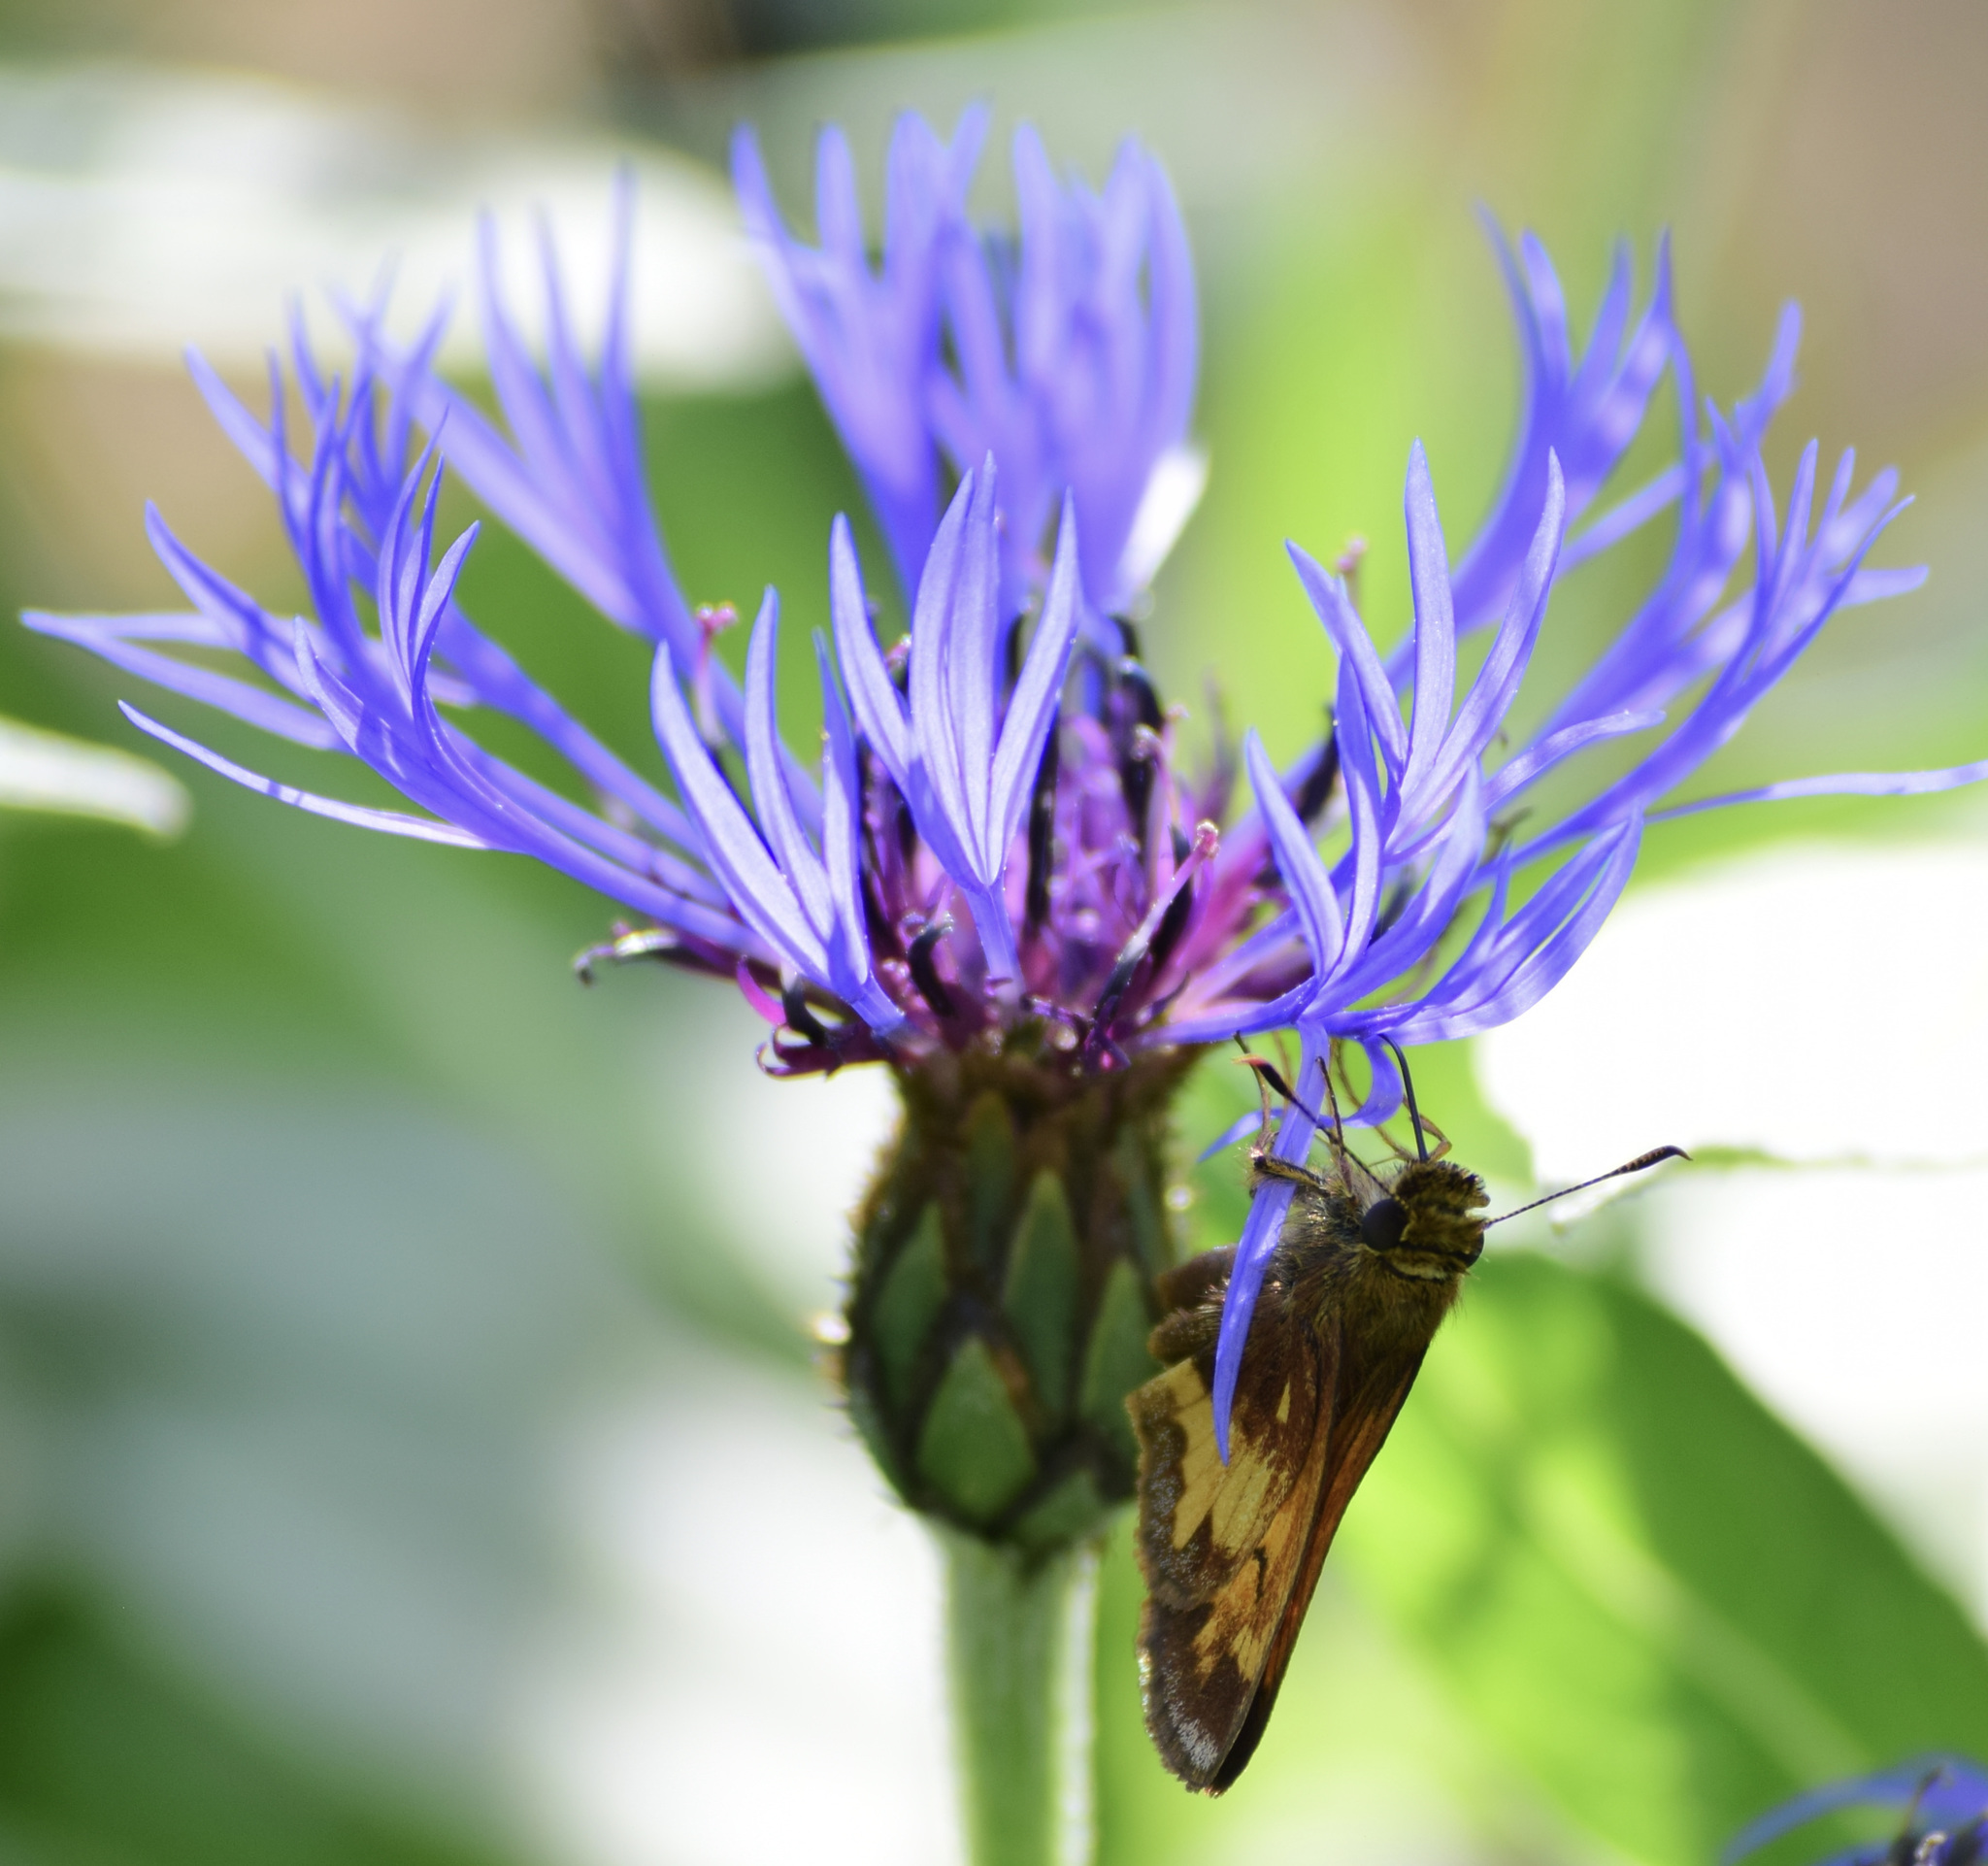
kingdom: Animalia
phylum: Arthropoda
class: Insecta
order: Lepidoptera
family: Hesperiidae
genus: Lon
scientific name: Lon hobomok
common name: Hobomok skipper
